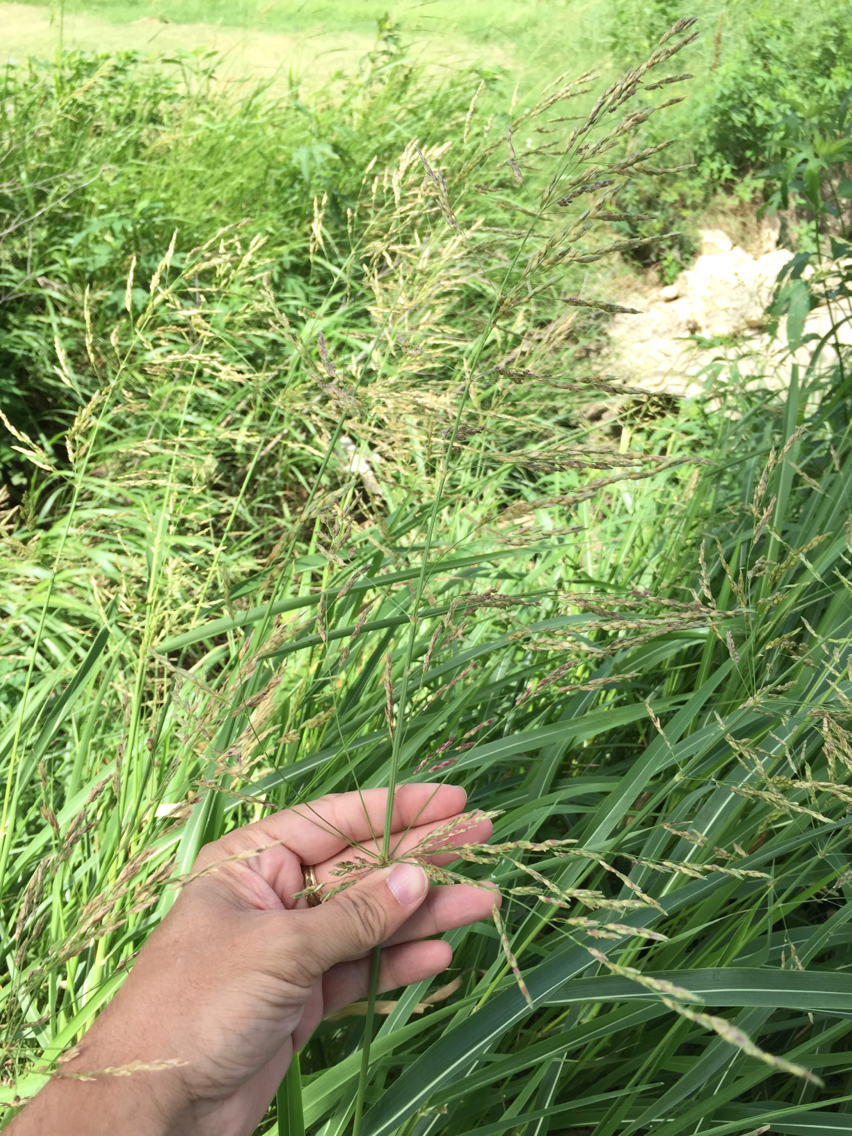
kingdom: Plantae
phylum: Tracheophyta
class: Liliopsida
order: Poales
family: Poaceae
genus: Sorghum
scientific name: Sorghum halepense
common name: Johnson-grass
